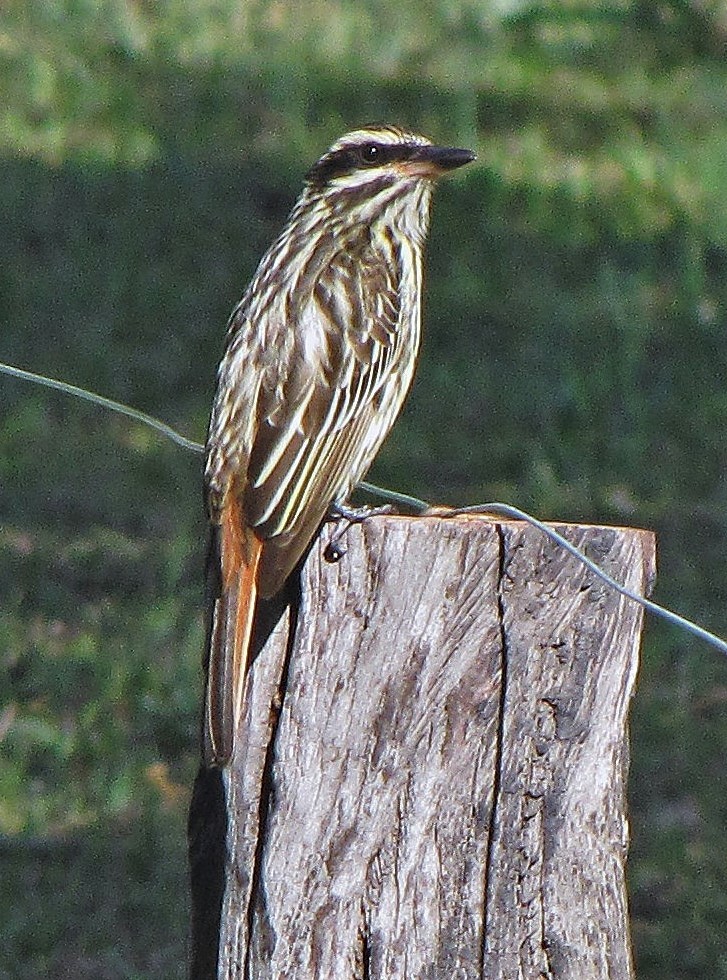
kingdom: Animalia
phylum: Chordata
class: Aves
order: Passeriformes
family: Tyrannidae
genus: Myiodynastes
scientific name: Myiodynastes maculatus
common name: Streaked flycatcher
